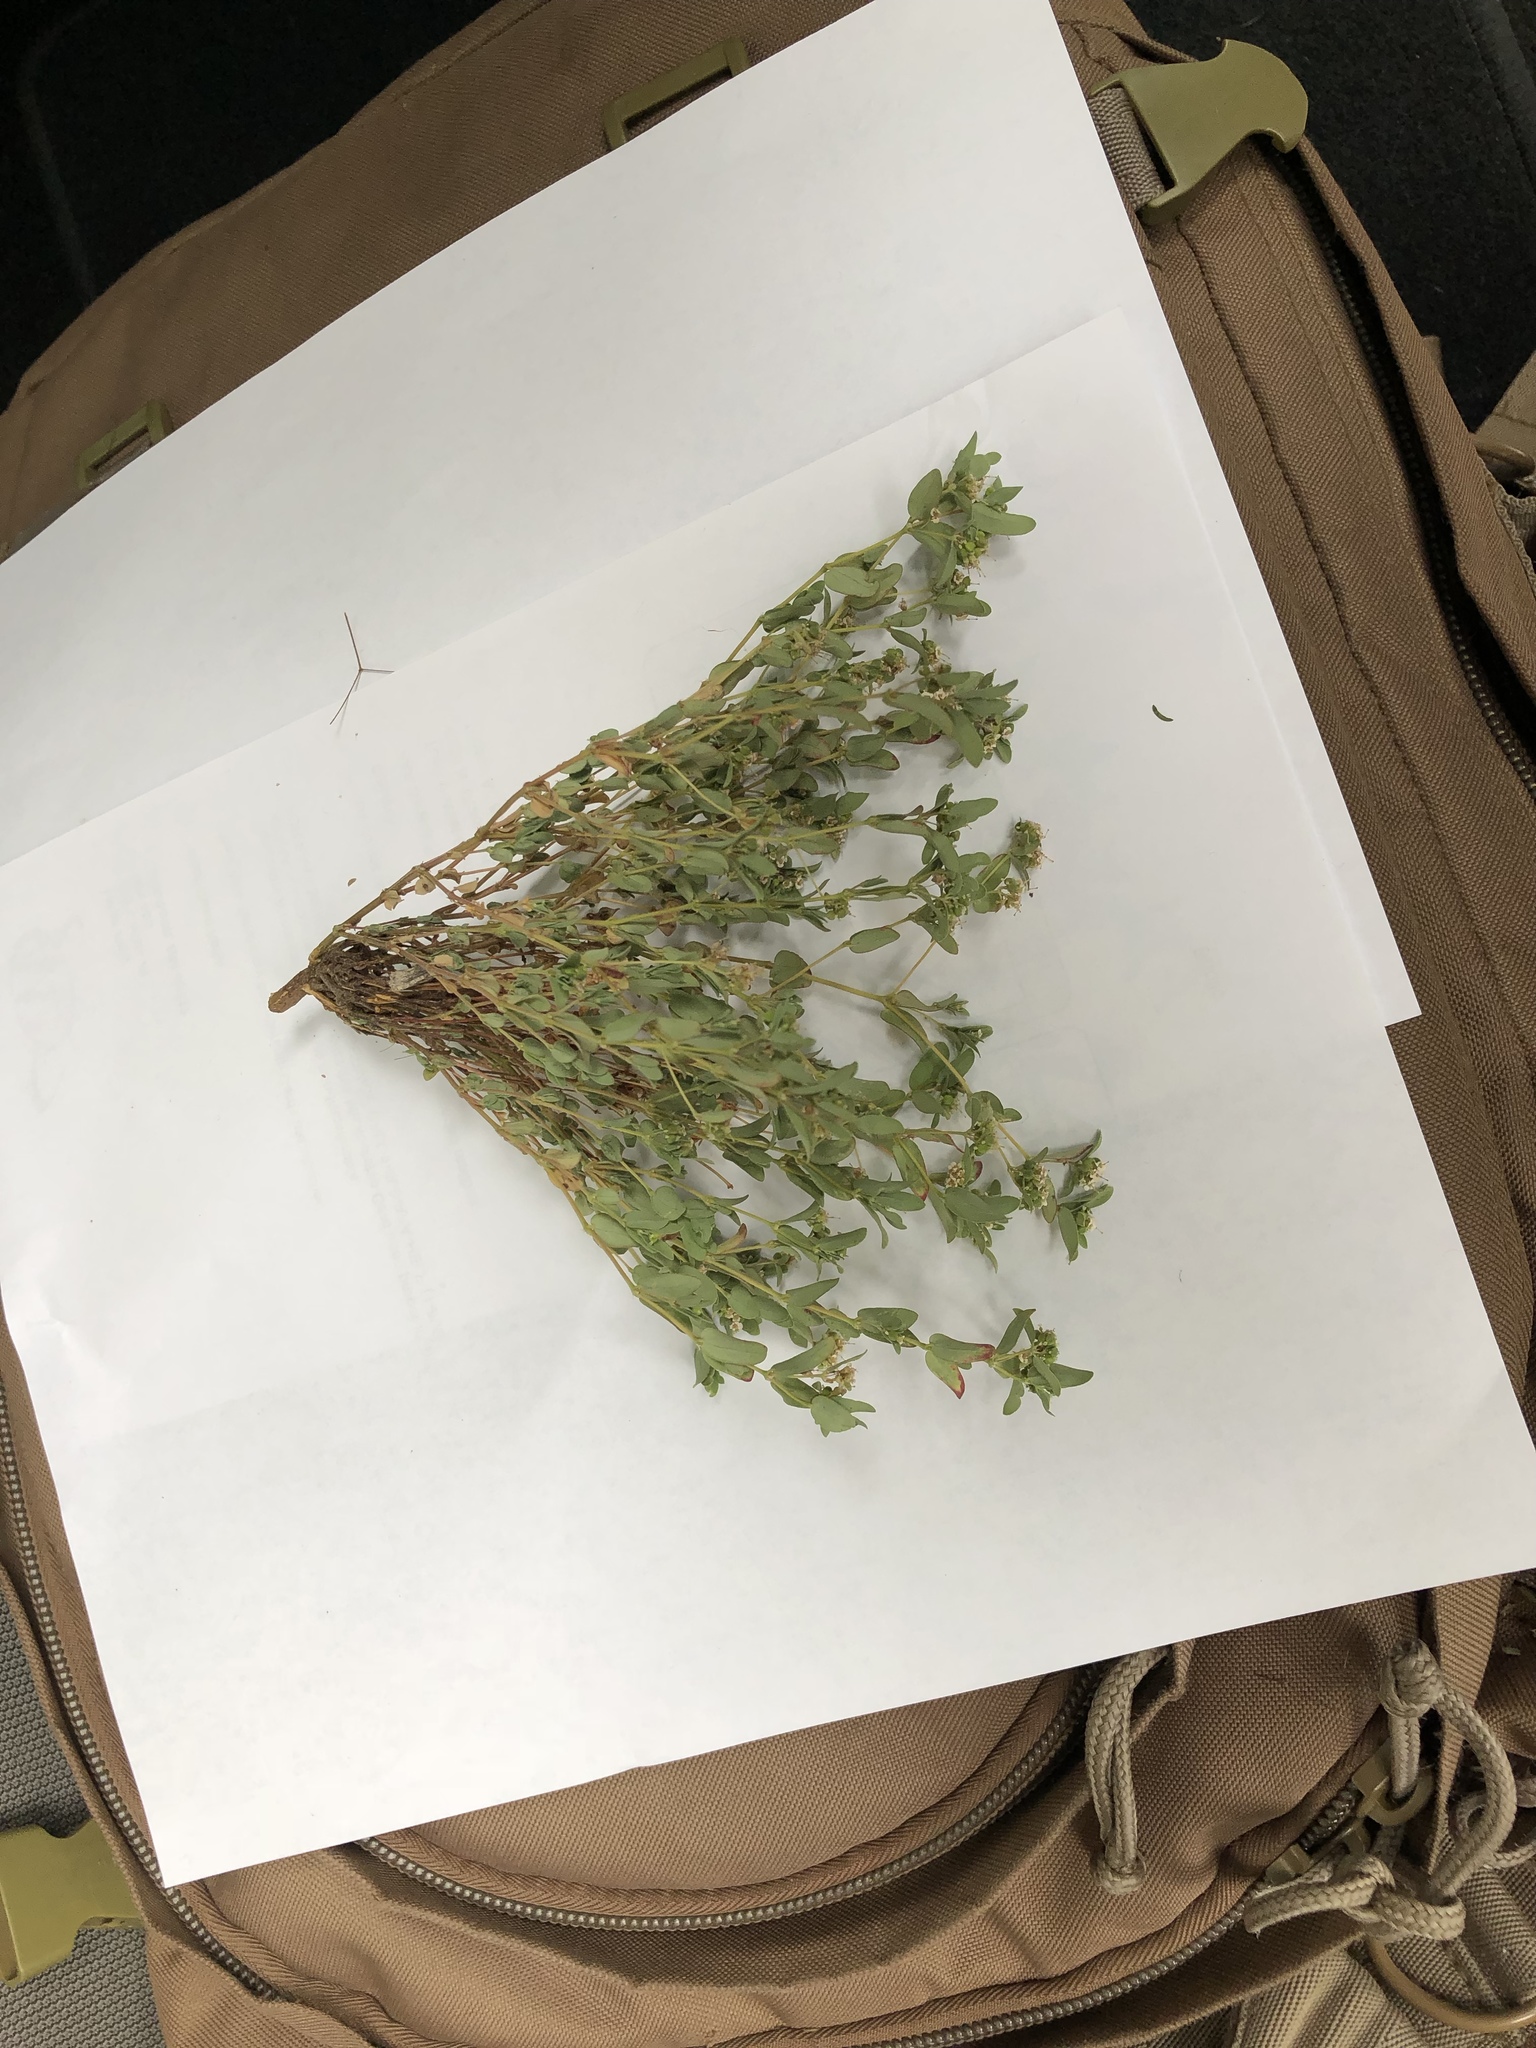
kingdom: Plantae
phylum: Tracheophyta
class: Magnoliopsida
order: Malpighiales
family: Euphorbiaceae
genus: Euphorbia
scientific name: Euphorbia capitellata
